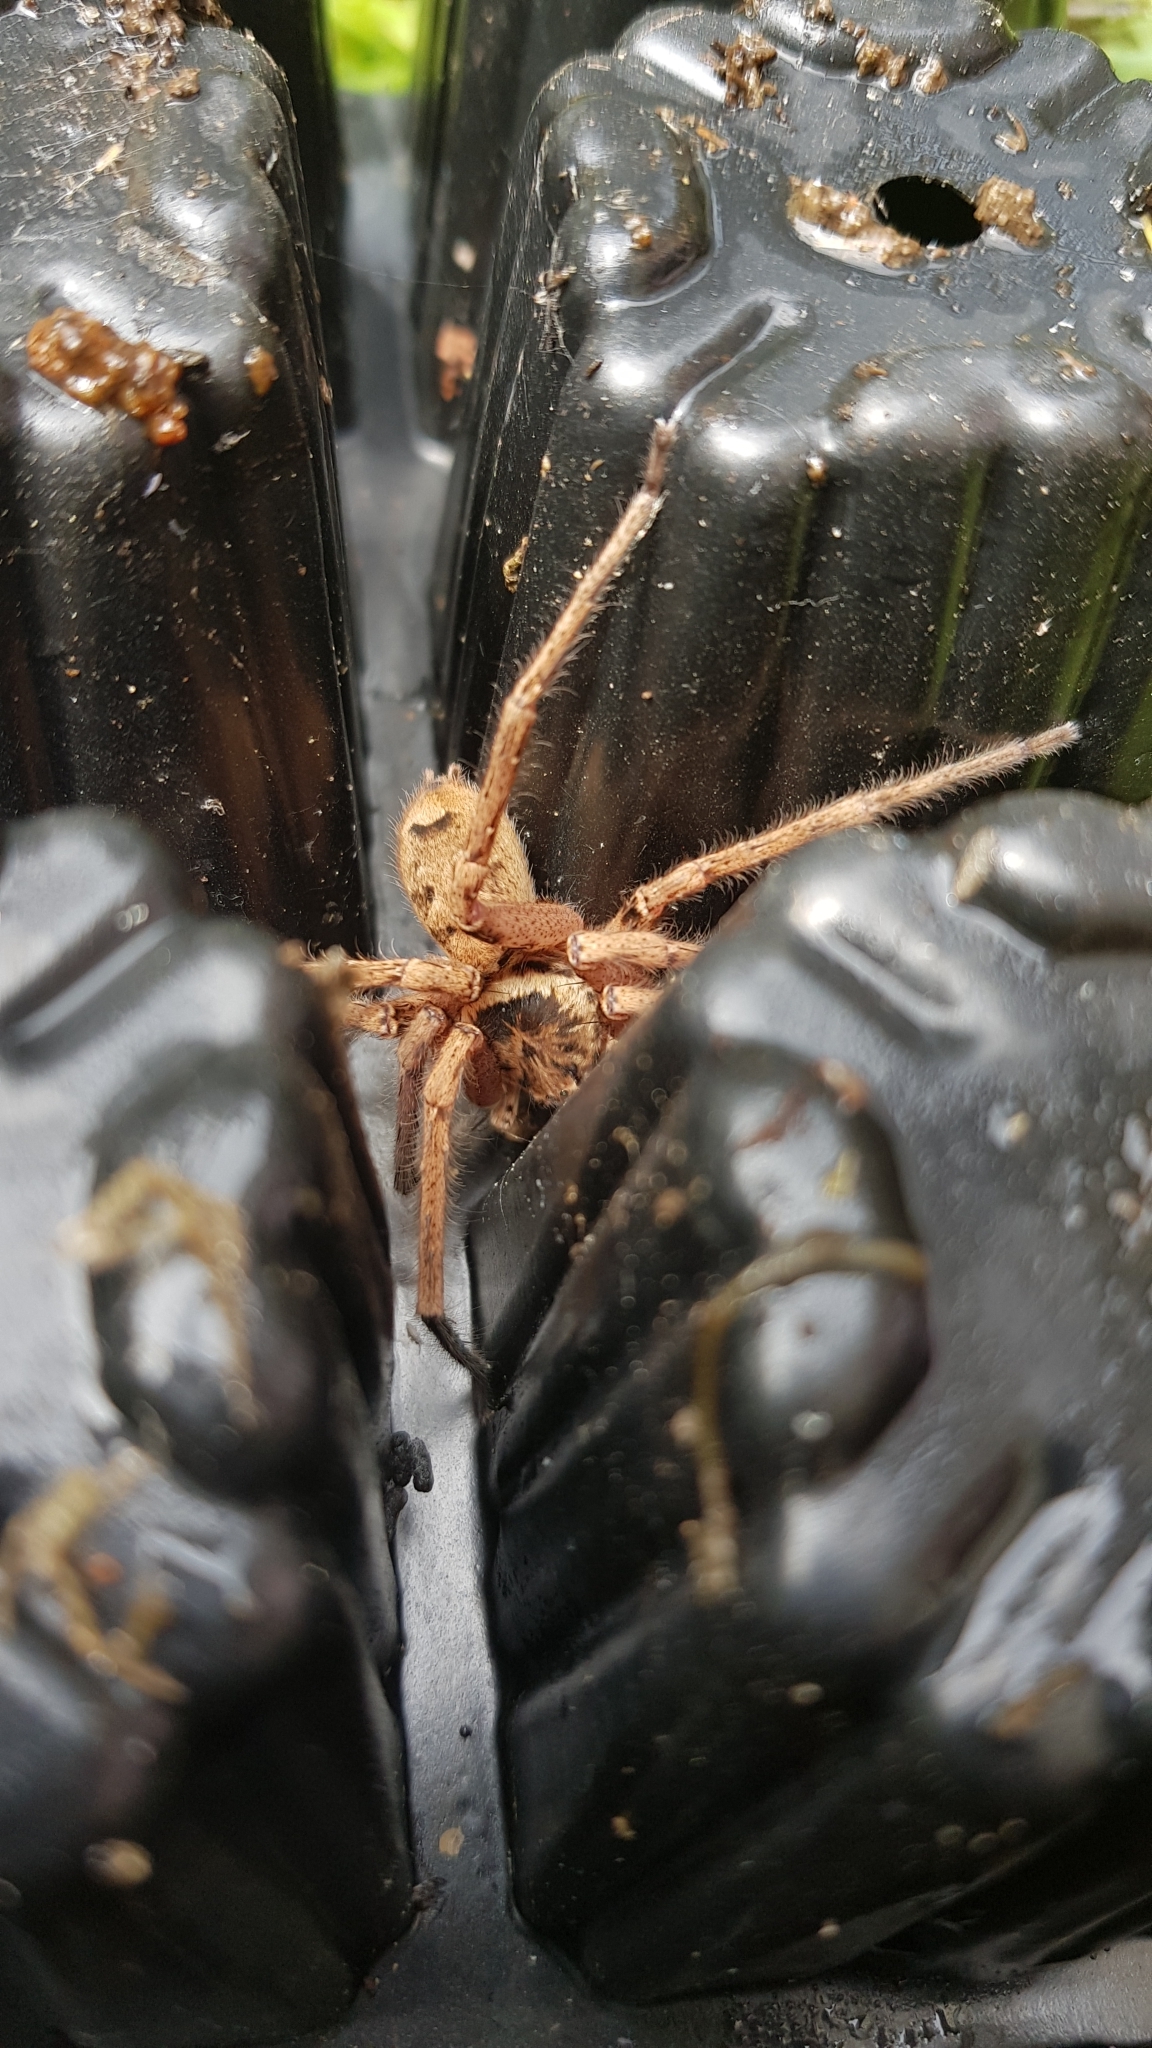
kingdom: Animalia
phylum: Arthropoda
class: Arachnida
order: Araneae
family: Sparassidae
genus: Heteropoda
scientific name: Heteropoda jugulans
